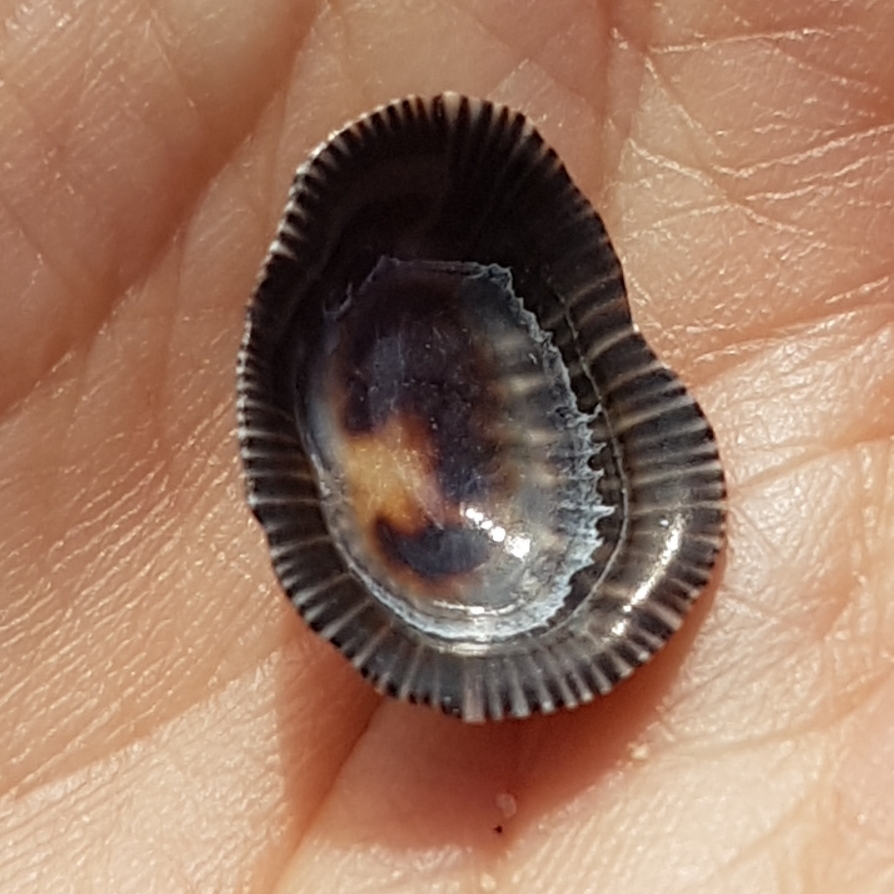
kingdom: Animalia
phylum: Mollusca
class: Gastropoda
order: Siphonariida
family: Siphonariidae
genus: Siphonaria
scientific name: Siphonaria pectinata
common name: Striped false limpet
